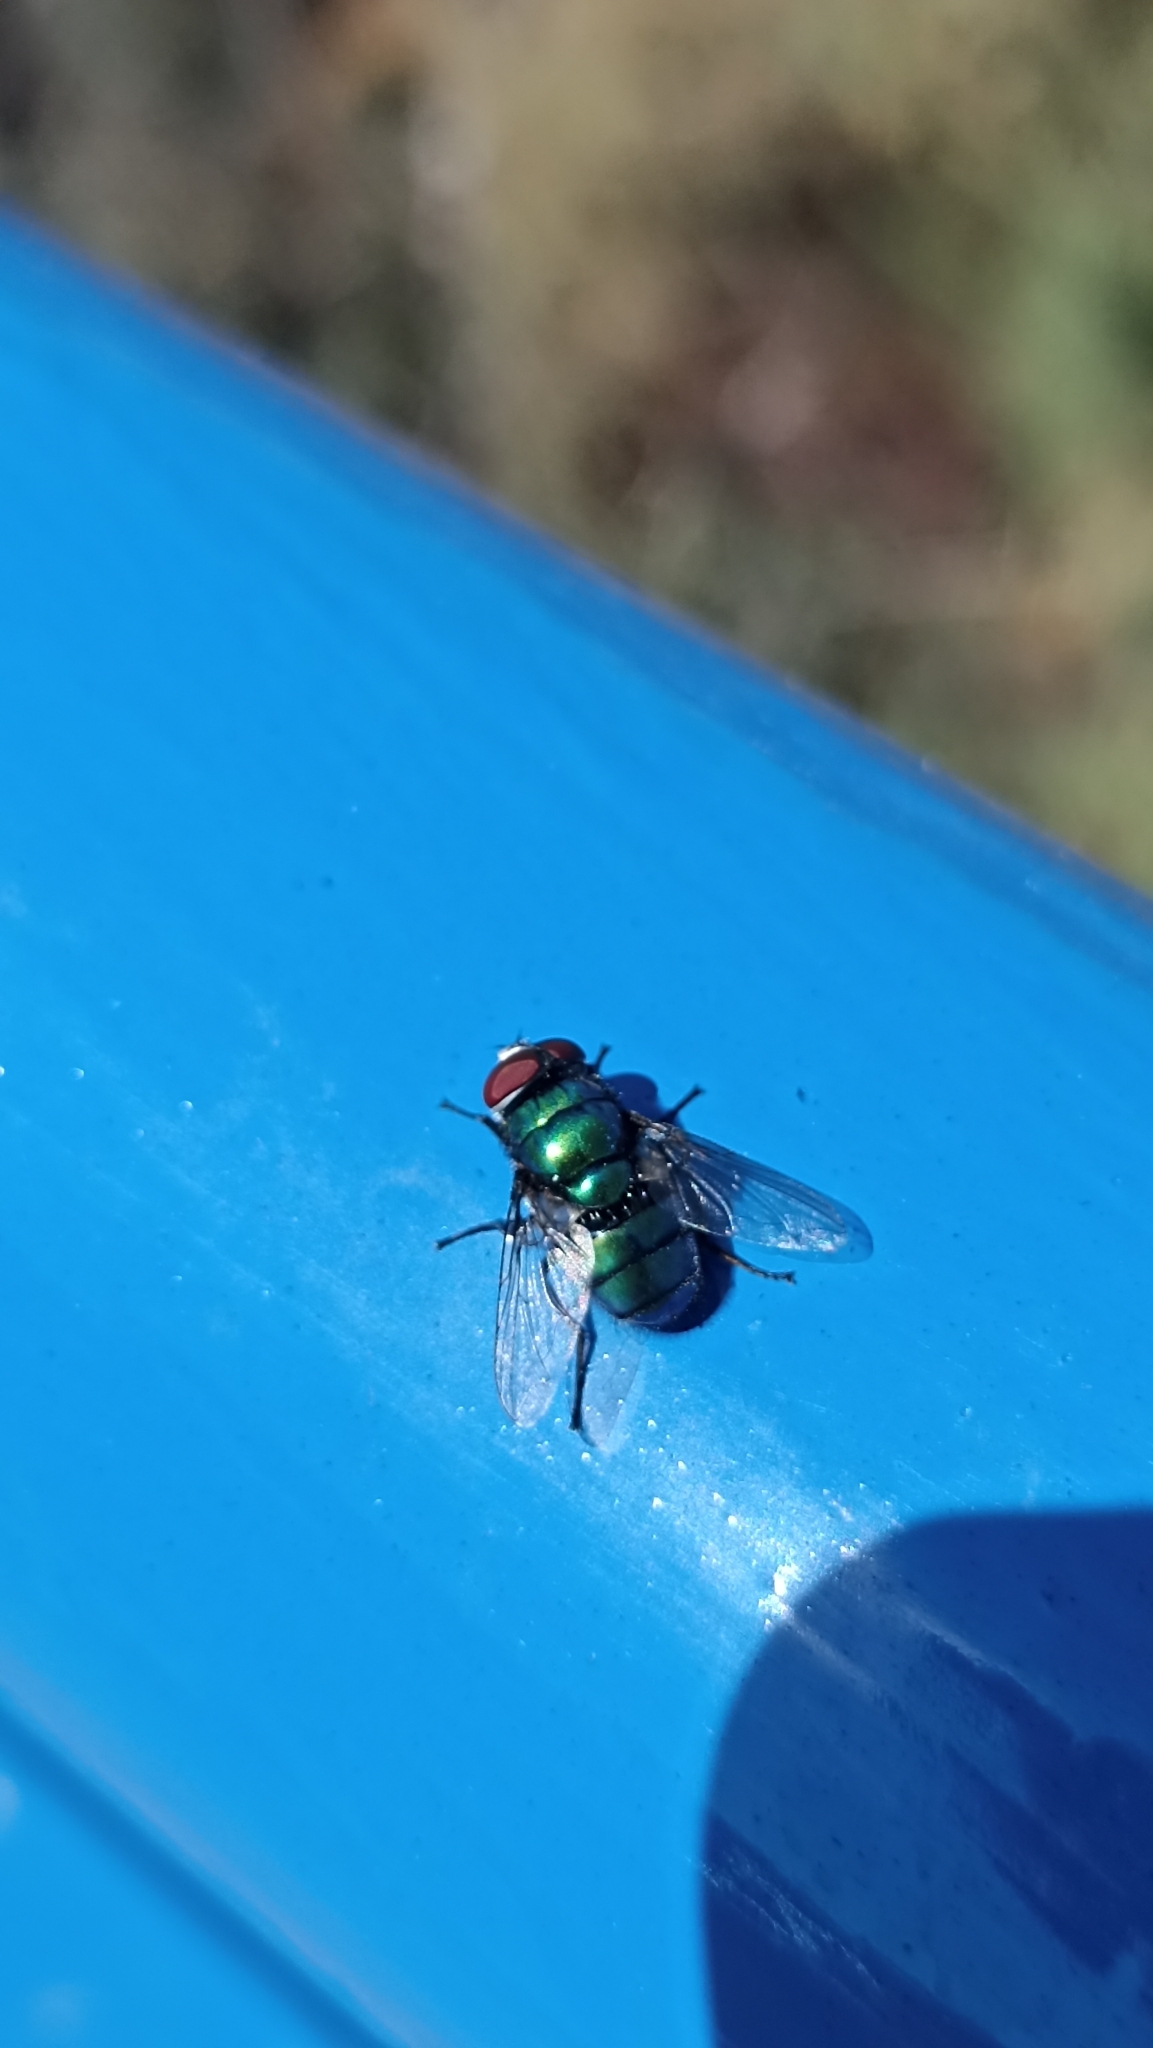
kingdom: Animalia
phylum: Arthropoda
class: Insecta
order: Diptera
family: Calliphoridae
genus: Chrysomya
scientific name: Chrysomya albiceps
